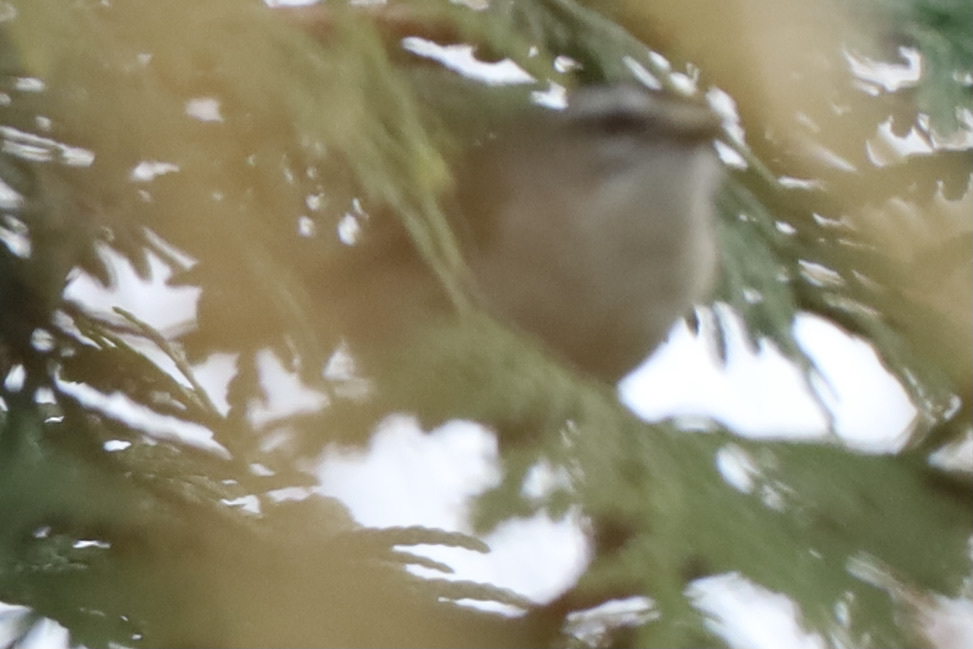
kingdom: Animalia
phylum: Chordata
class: Aves
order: Passeriformes
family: Regulidae
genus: Regulus
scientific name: Regulus satrapa
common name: Golden-crowned kinglet
